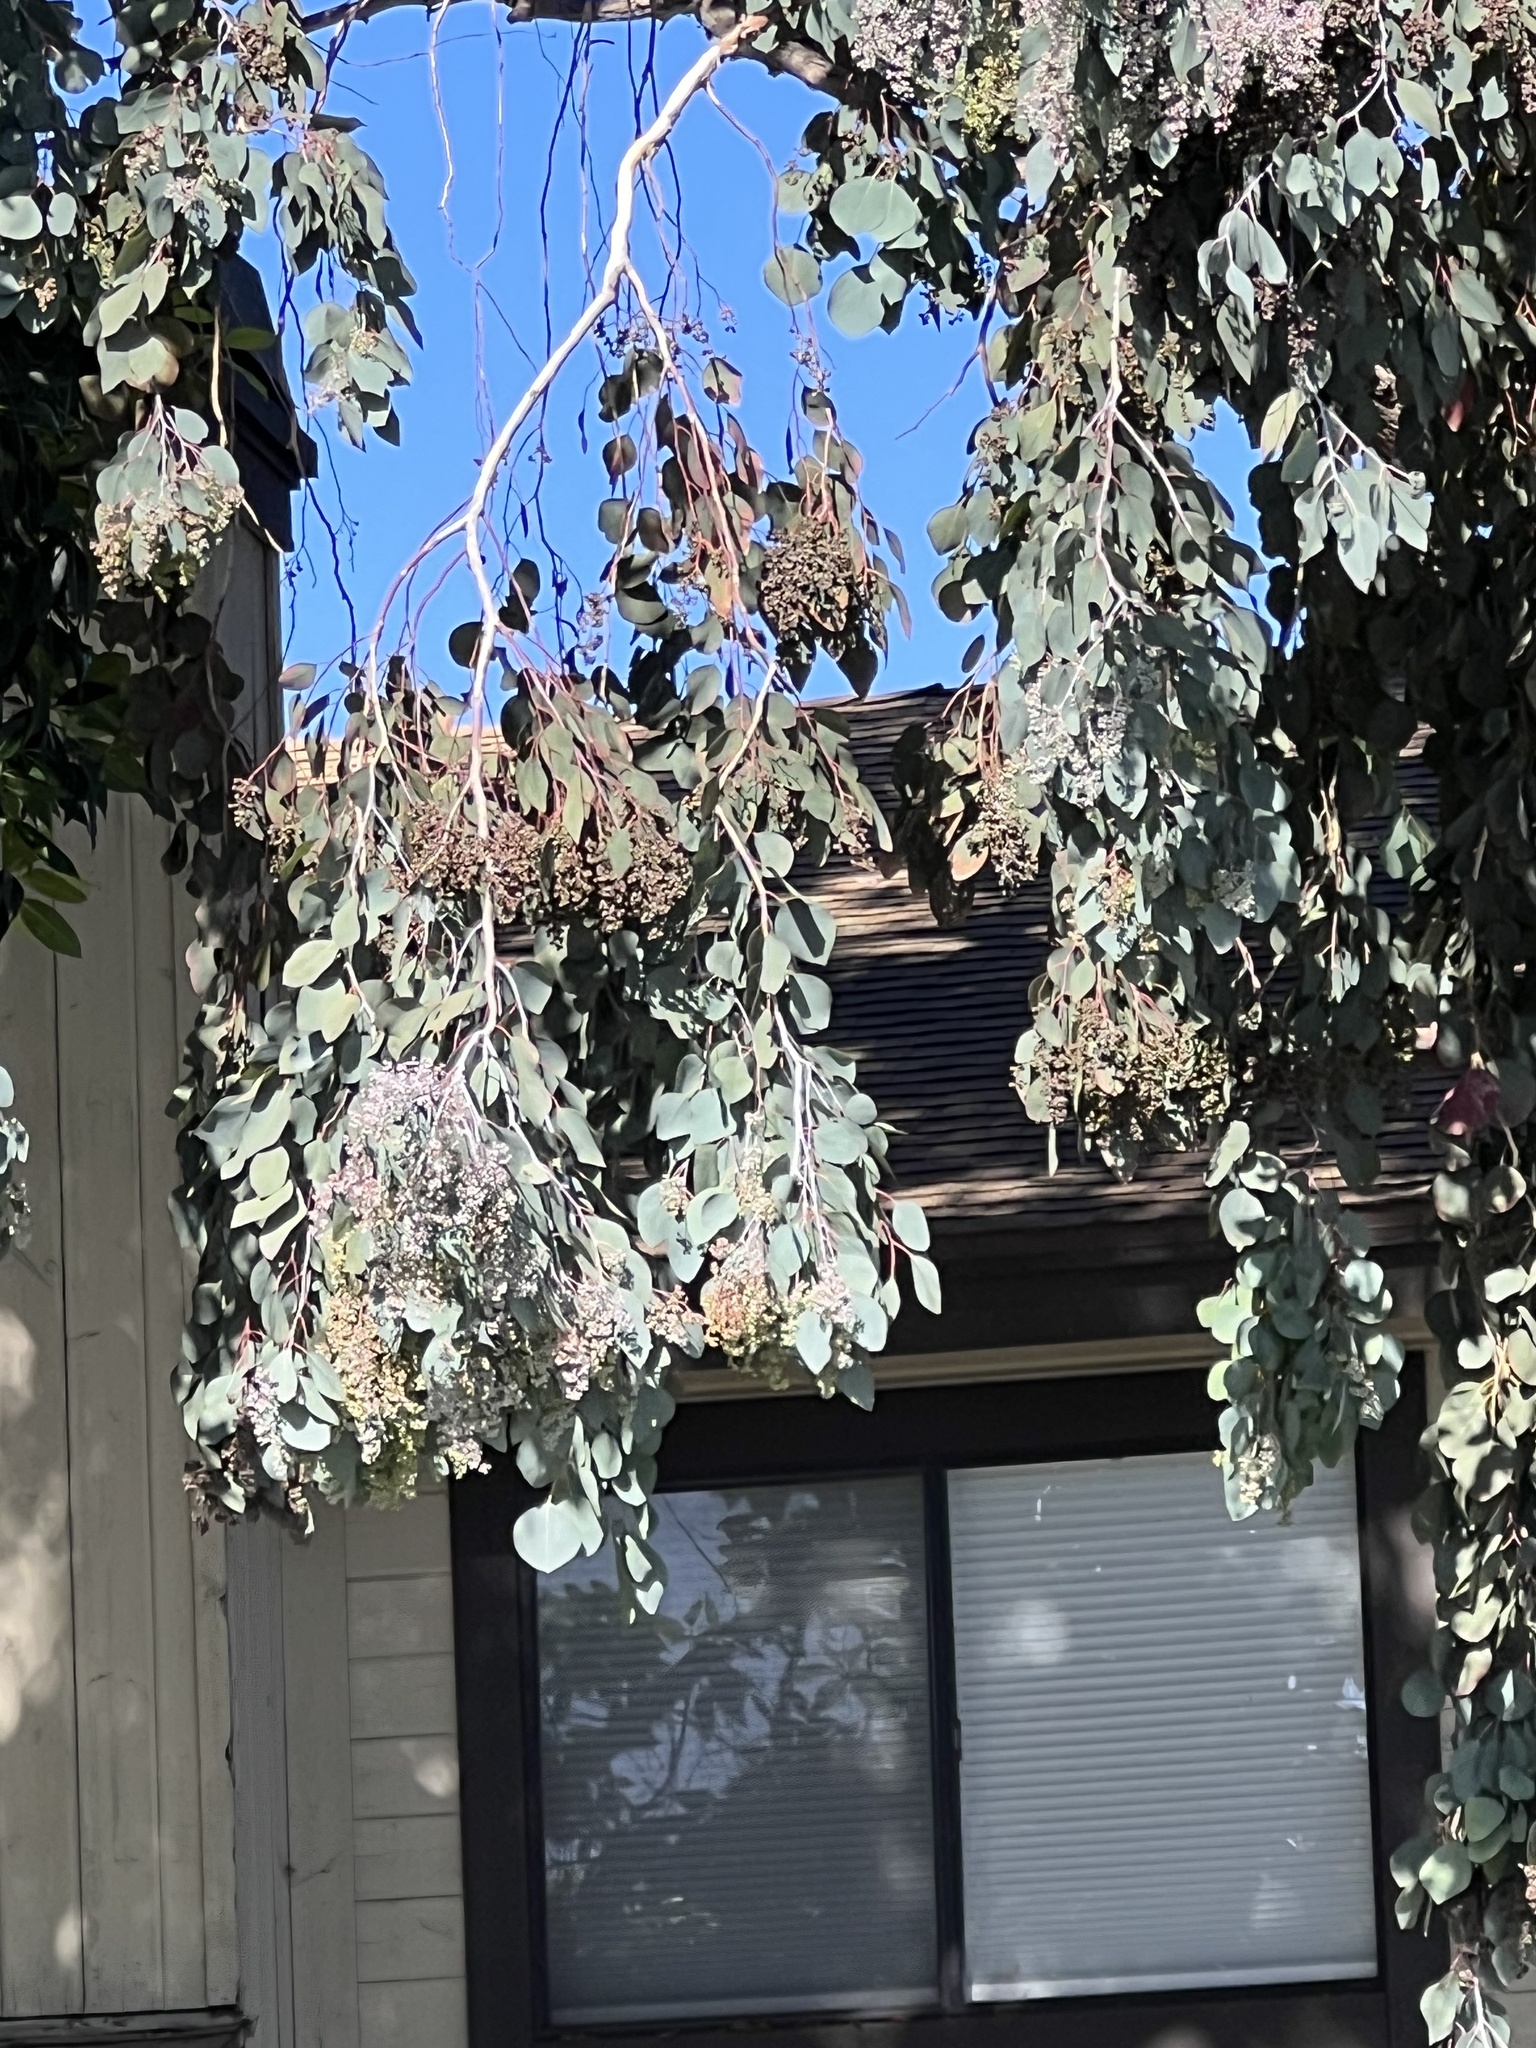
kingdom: Plantae
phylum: Tracheophyta
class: Magnoliopsida
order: Myrtales
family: Myrtaceae
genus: Eucalyptus
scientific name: Eucalyptus polyanthemos
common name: Red-box
